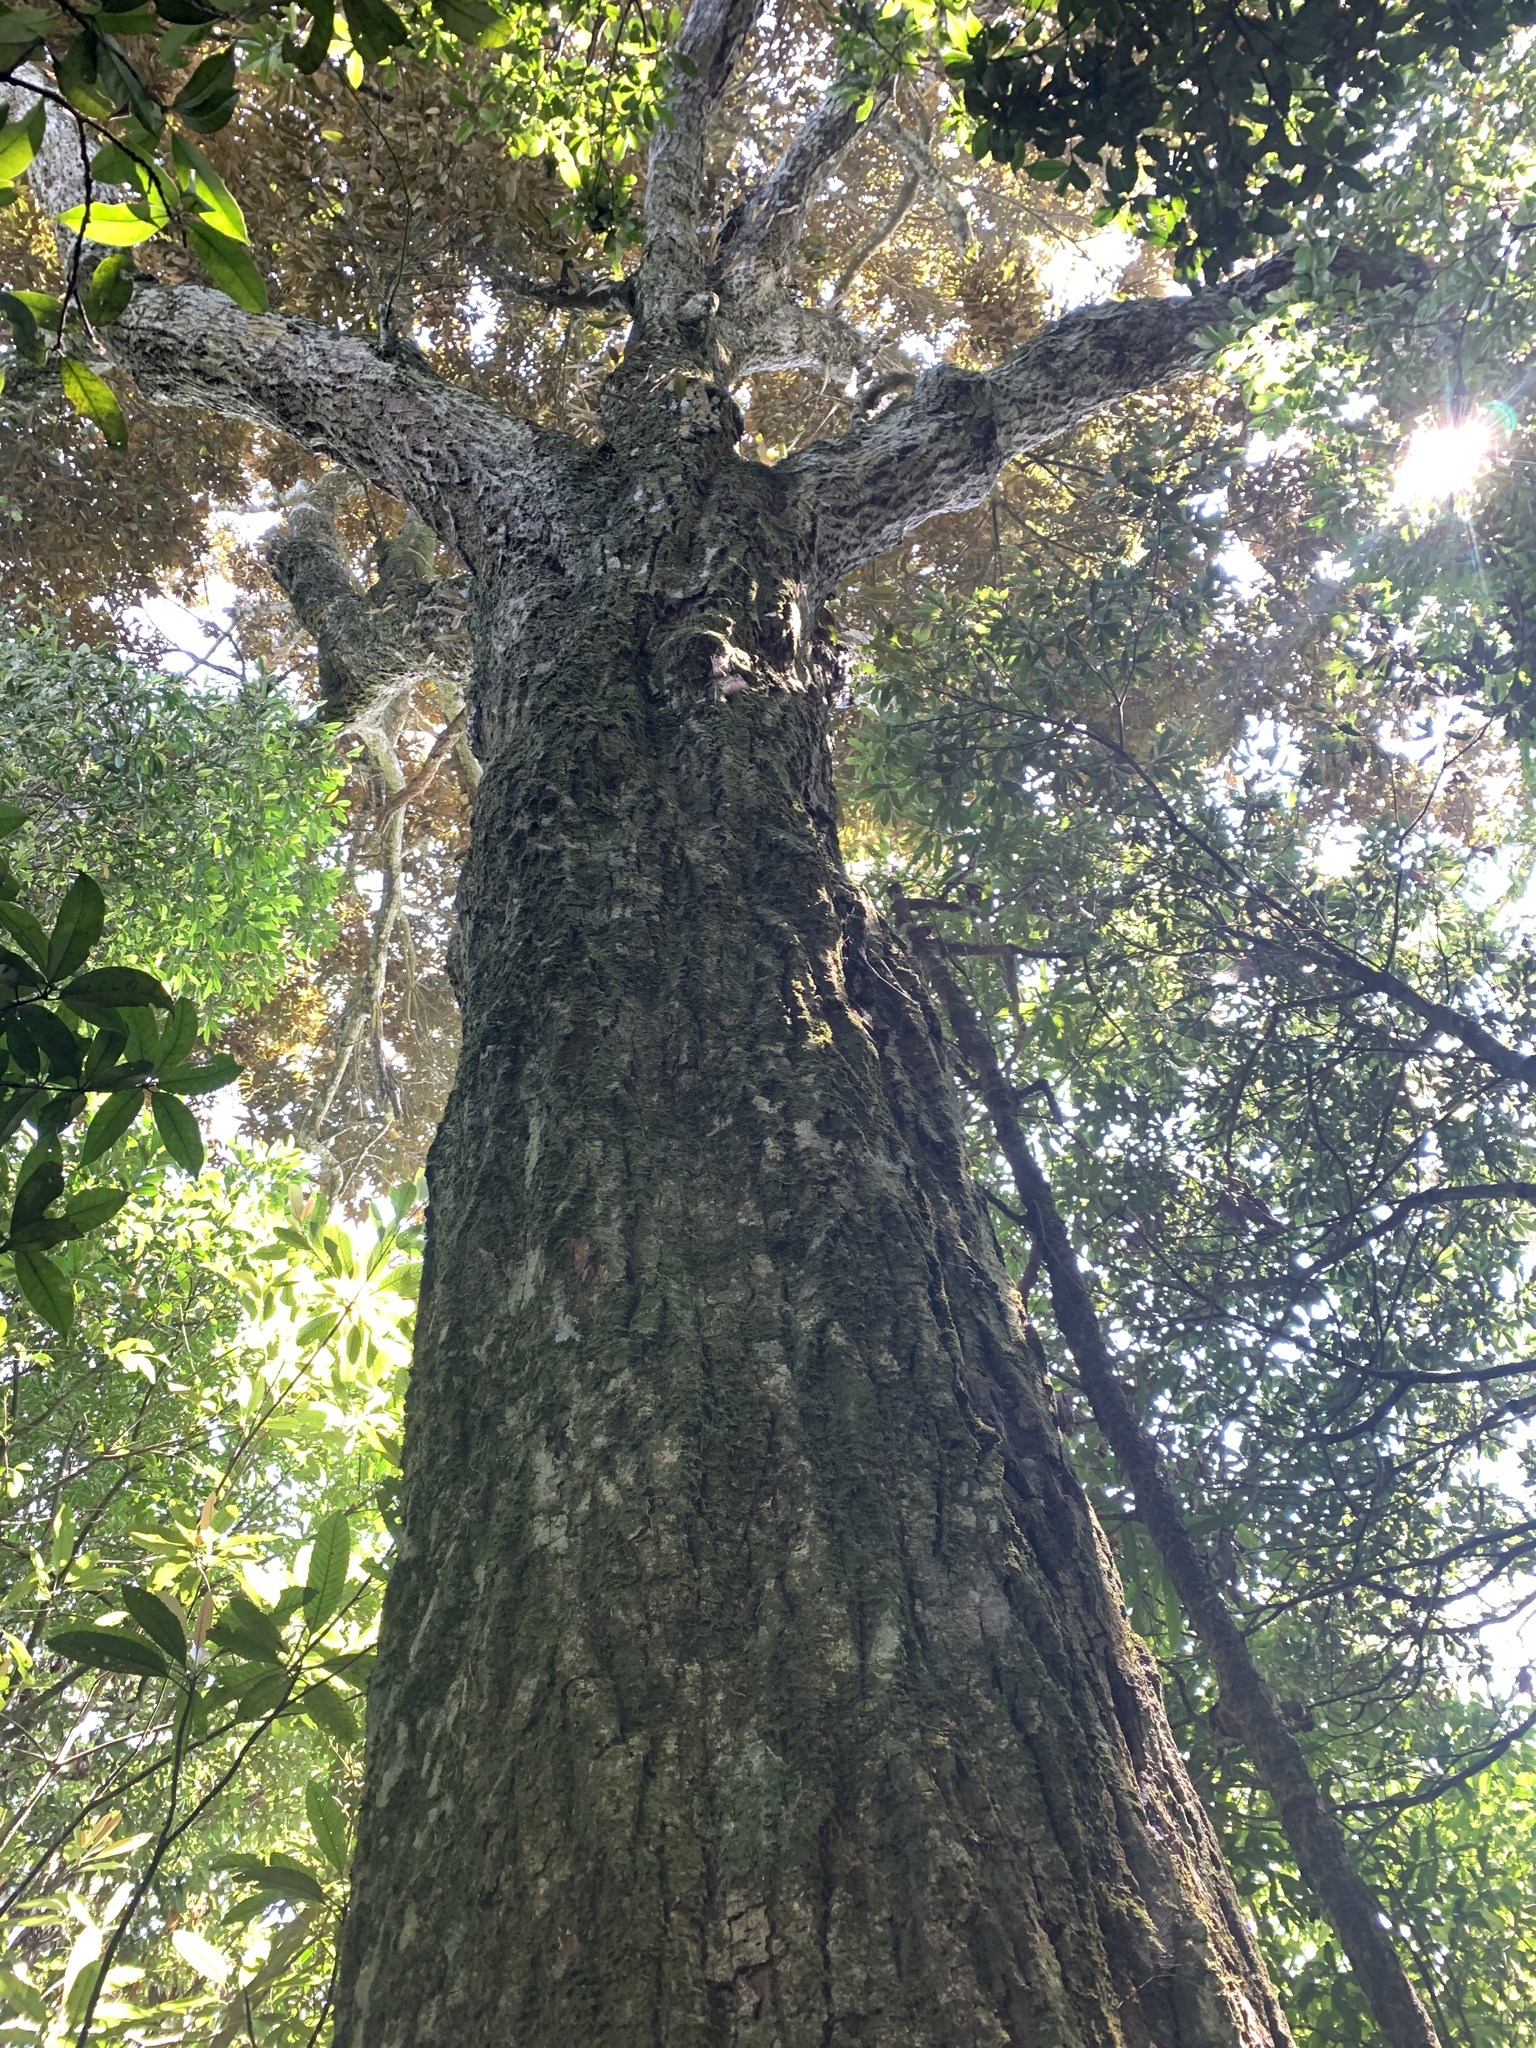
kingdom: Plantae
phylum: Tracheophyta
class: Magnoliopsida
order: Fagales
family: Fagaceae
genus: Castanopsis
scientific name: Castanopsis fargesii
